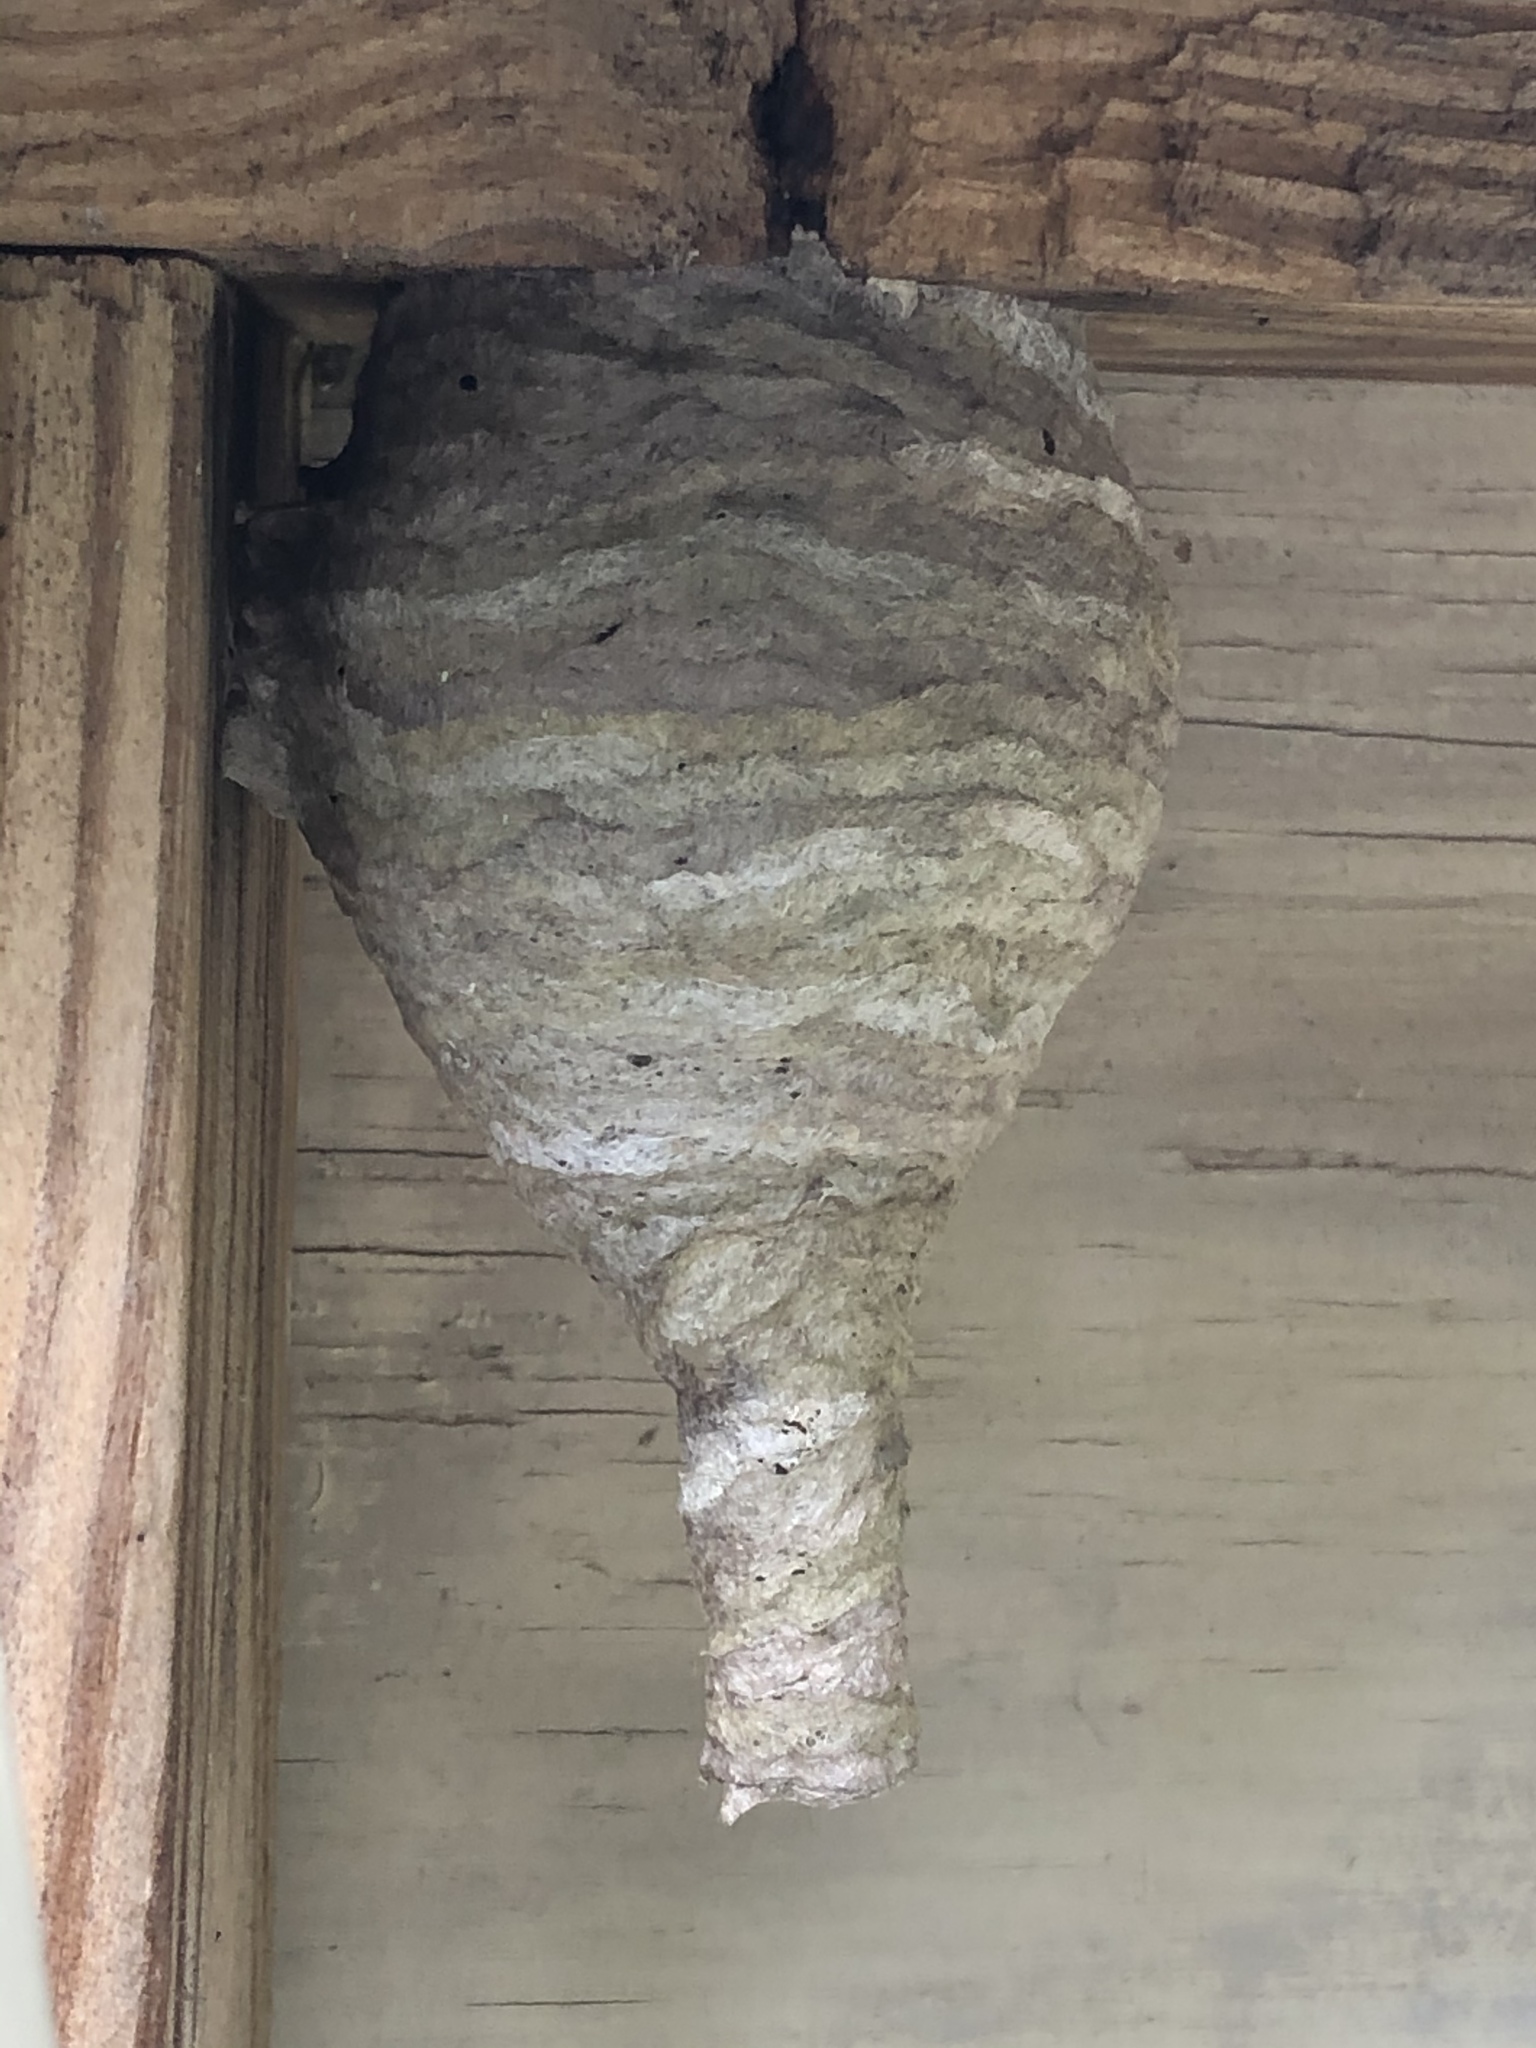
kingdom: Animalia
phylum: Arthropoda
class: Insecta
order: Hymenoptera
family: Vespidae
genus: Dolichovespula
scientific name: Dolichovespula maculata
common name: Bald-faced hornet
